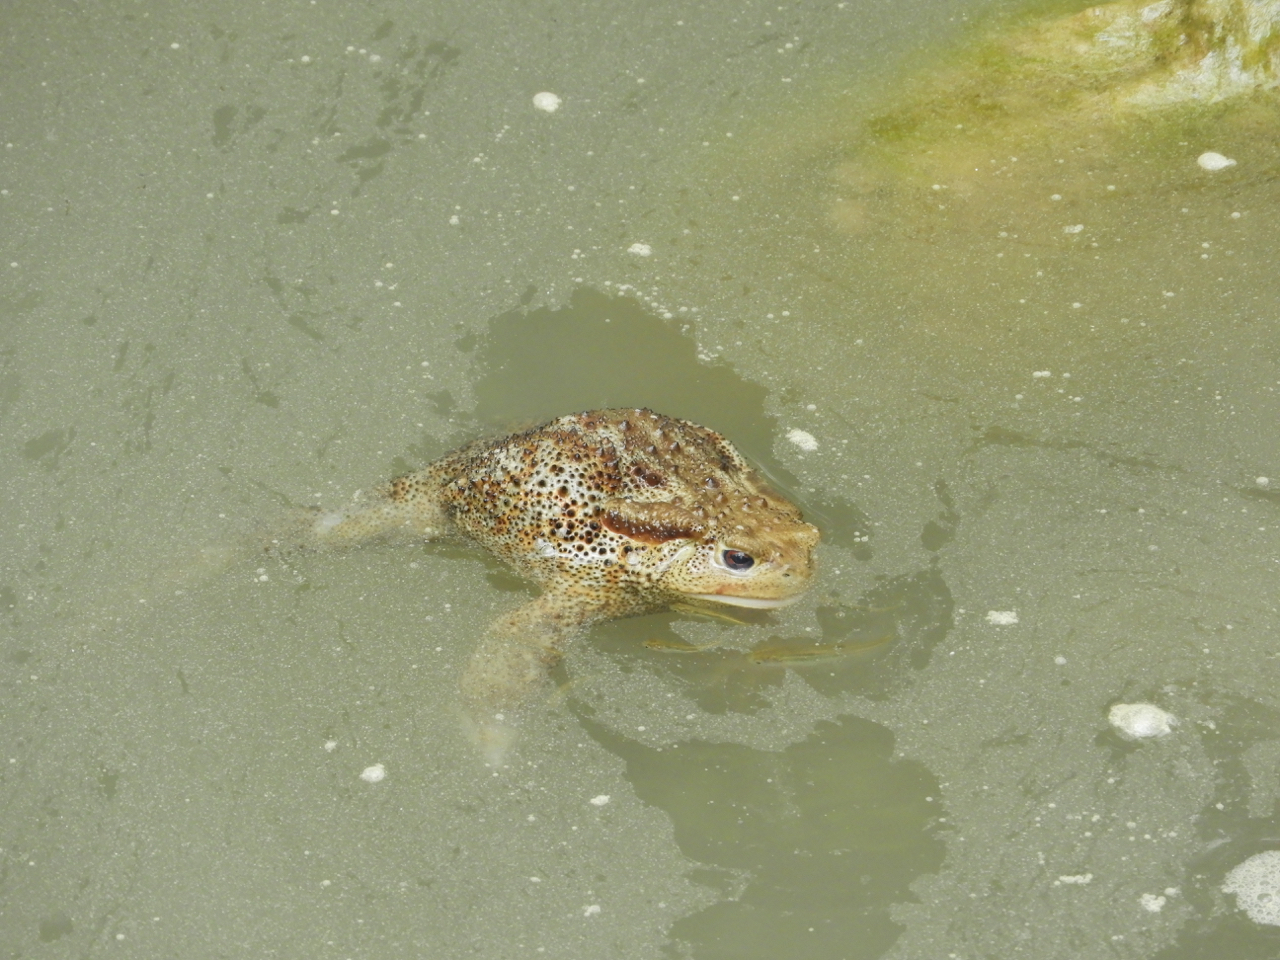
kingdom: Animalia
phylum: Chordata
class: Amphibia
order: Anura
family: Bufonidae
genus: Bufo
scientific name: Bufo bufo
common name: Common toad
